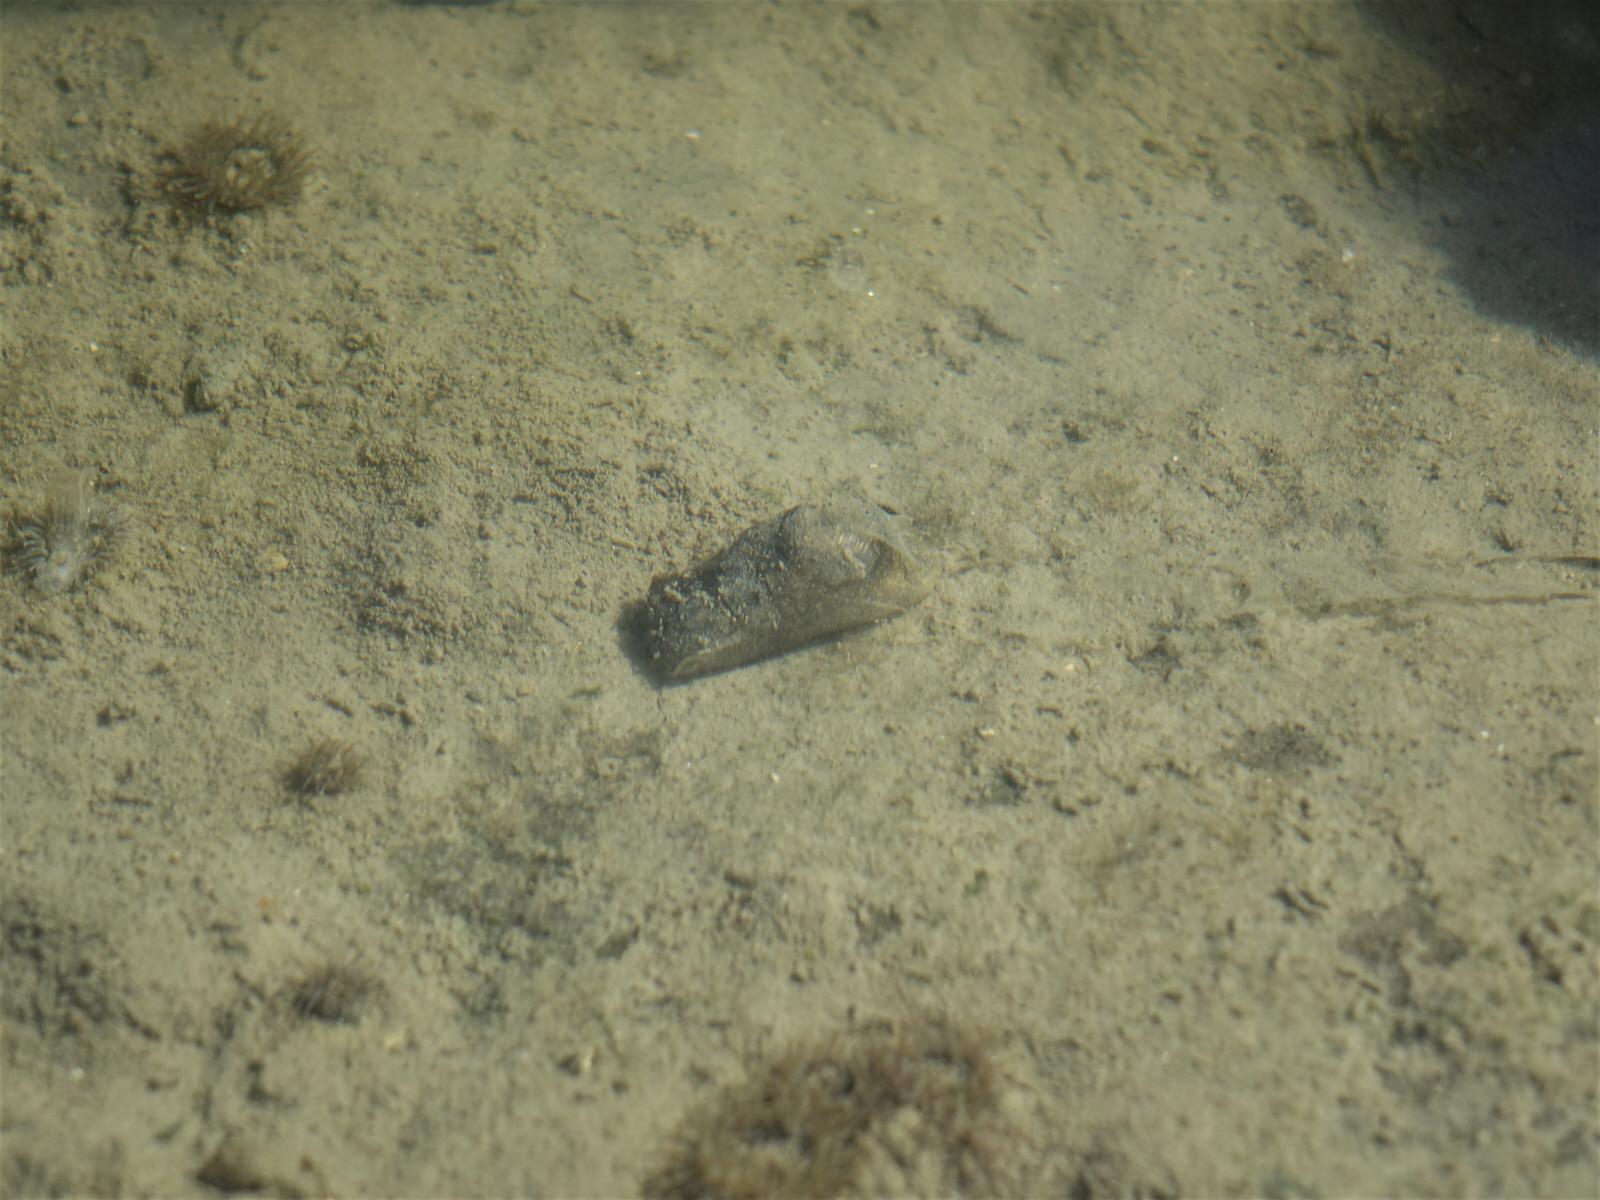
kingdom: Animalia
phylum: Mollusca
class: Gastropoda
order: Cephalaspidea
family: Haminoeidae
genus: Papawera
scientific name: Papawera zelandiae
